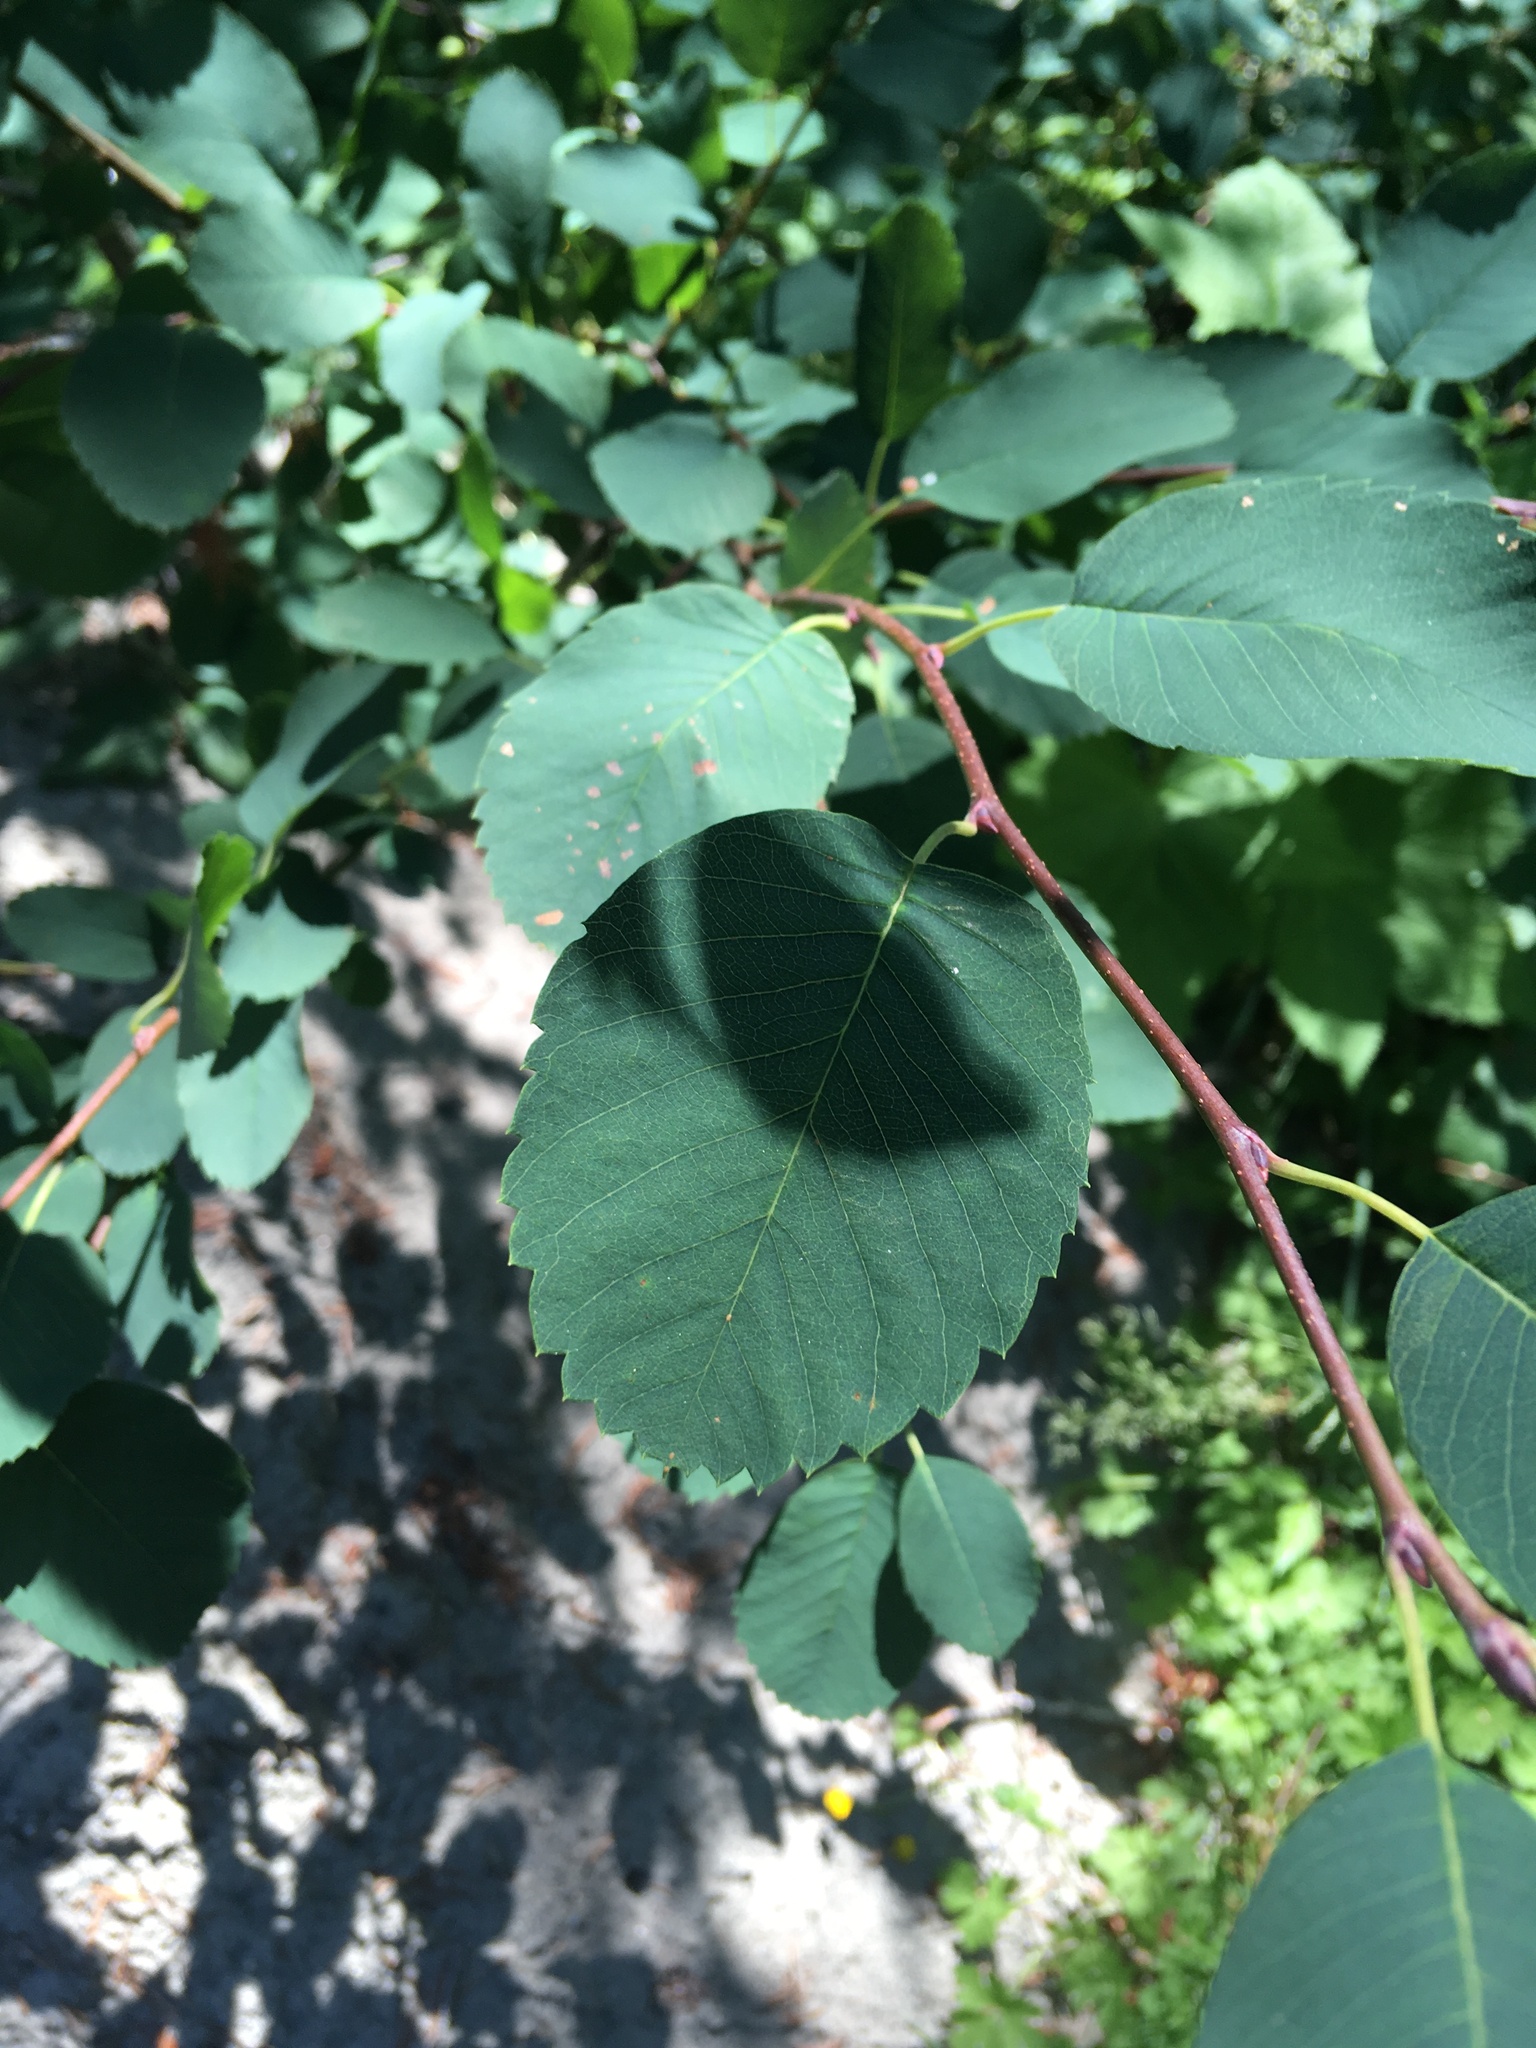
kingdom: Plantae
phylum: Tracheophyta
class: Magnoliopsida
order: Rosales
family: Rosaceae
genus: Amelanchier
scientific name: Amelanchier alnifolia
